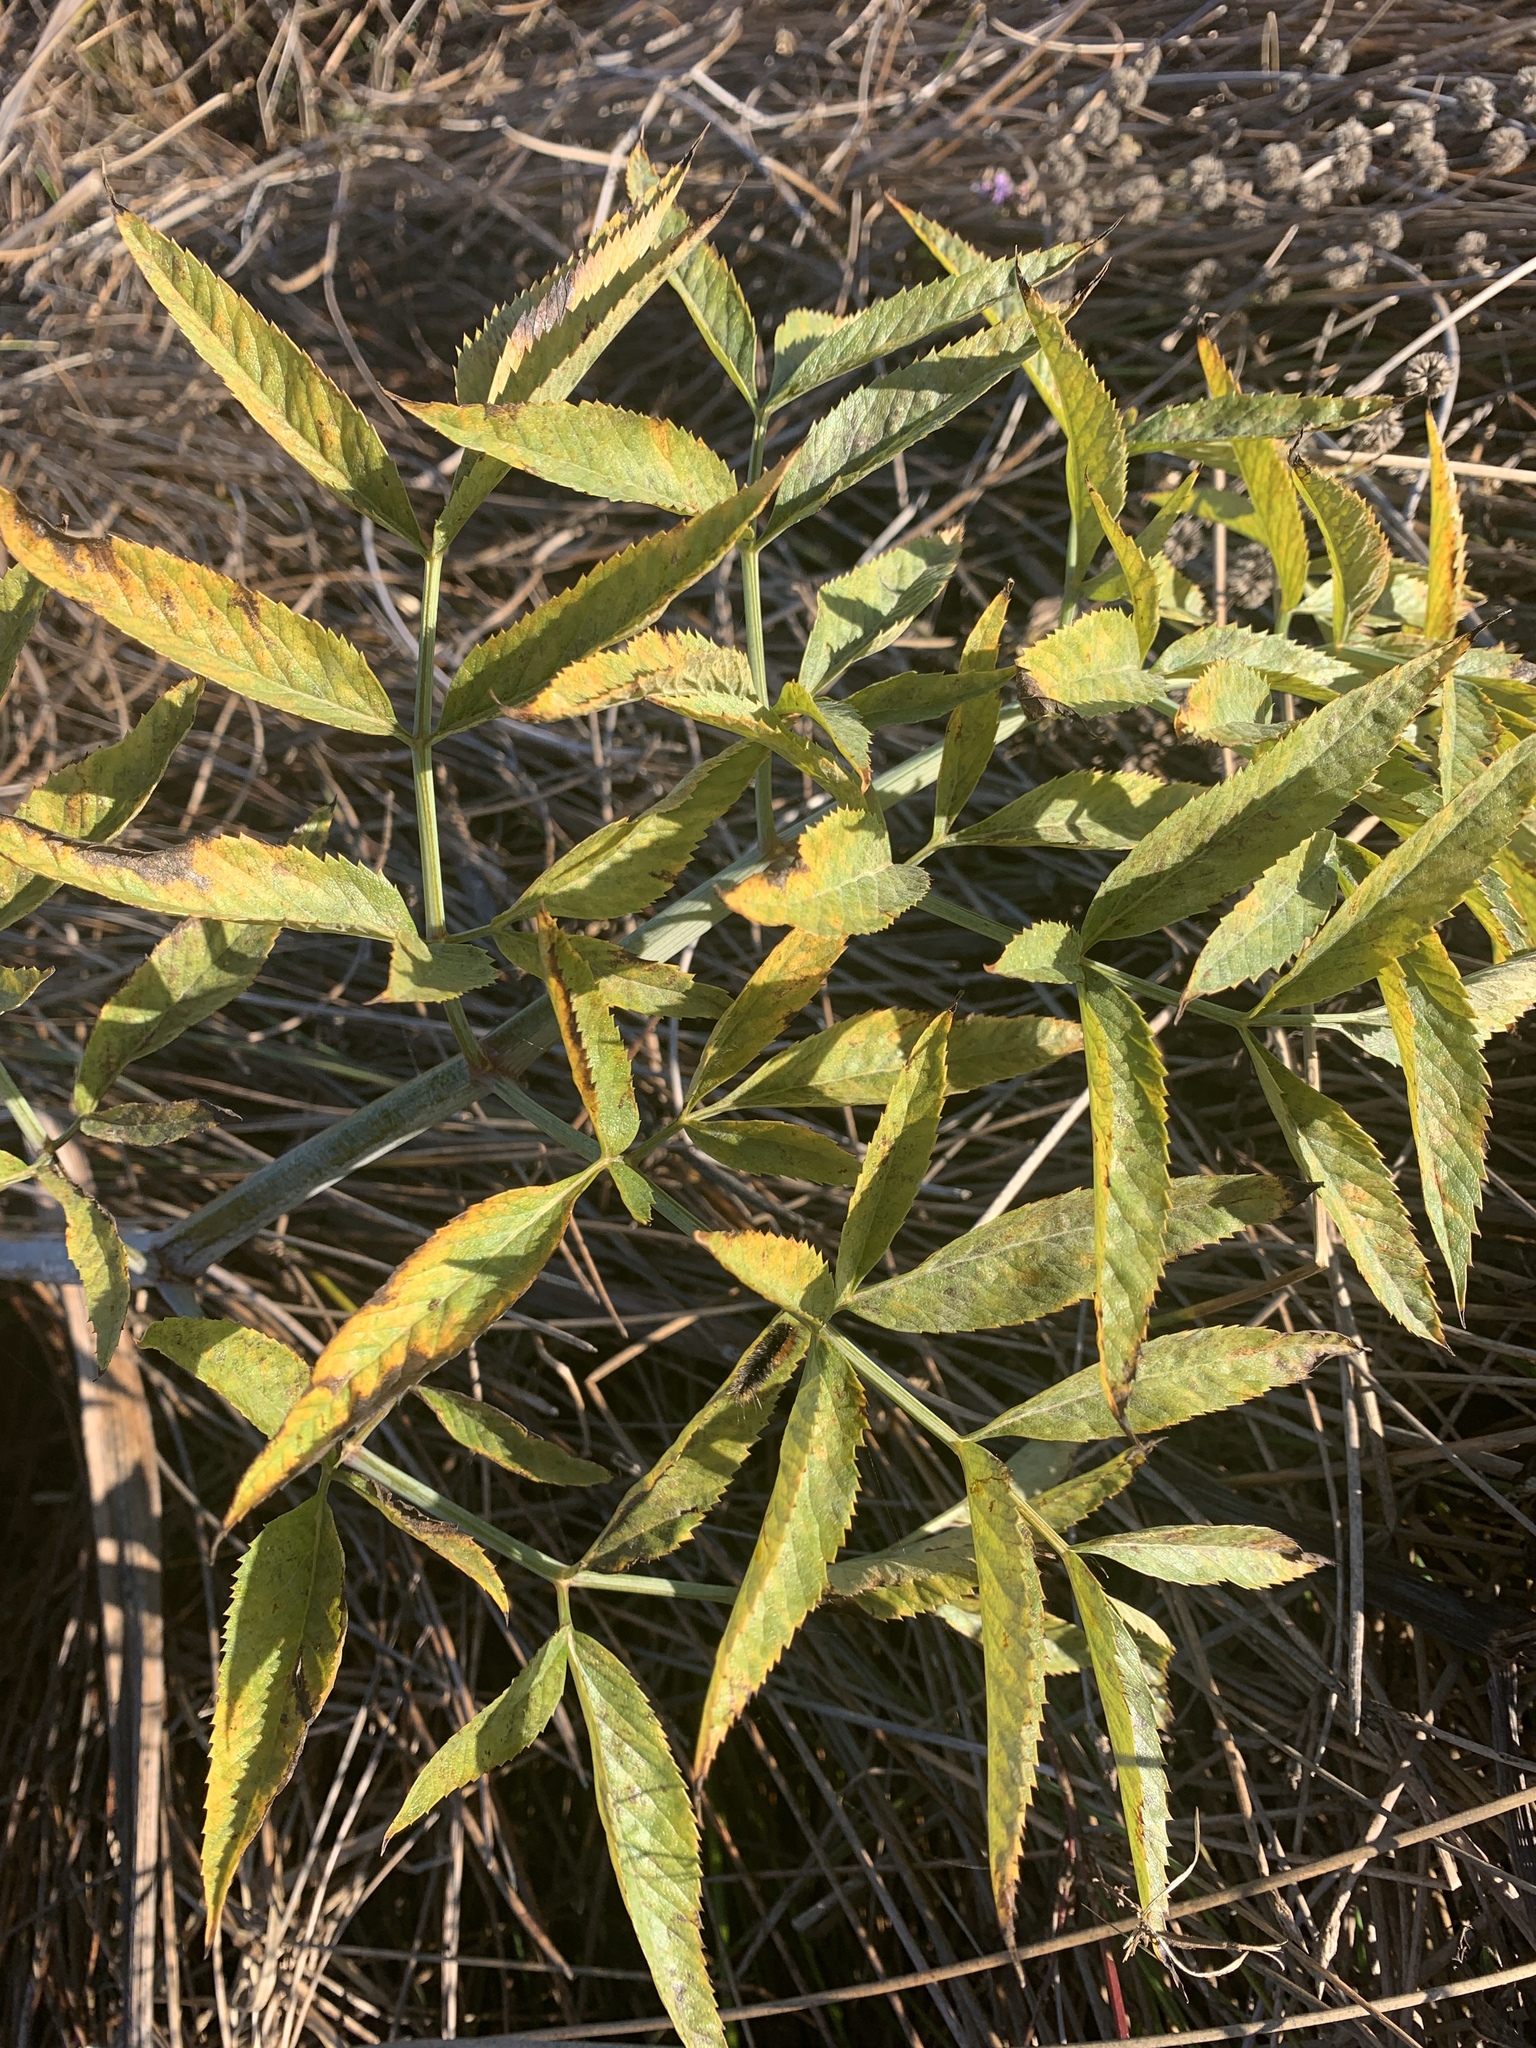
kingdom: Plantae
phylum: Tracheophyta
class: Magnoliopsida
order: Apiales
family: Apiaceae
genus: Cicuta
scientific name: Cicuta douglasii
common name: Western water-hemlock
